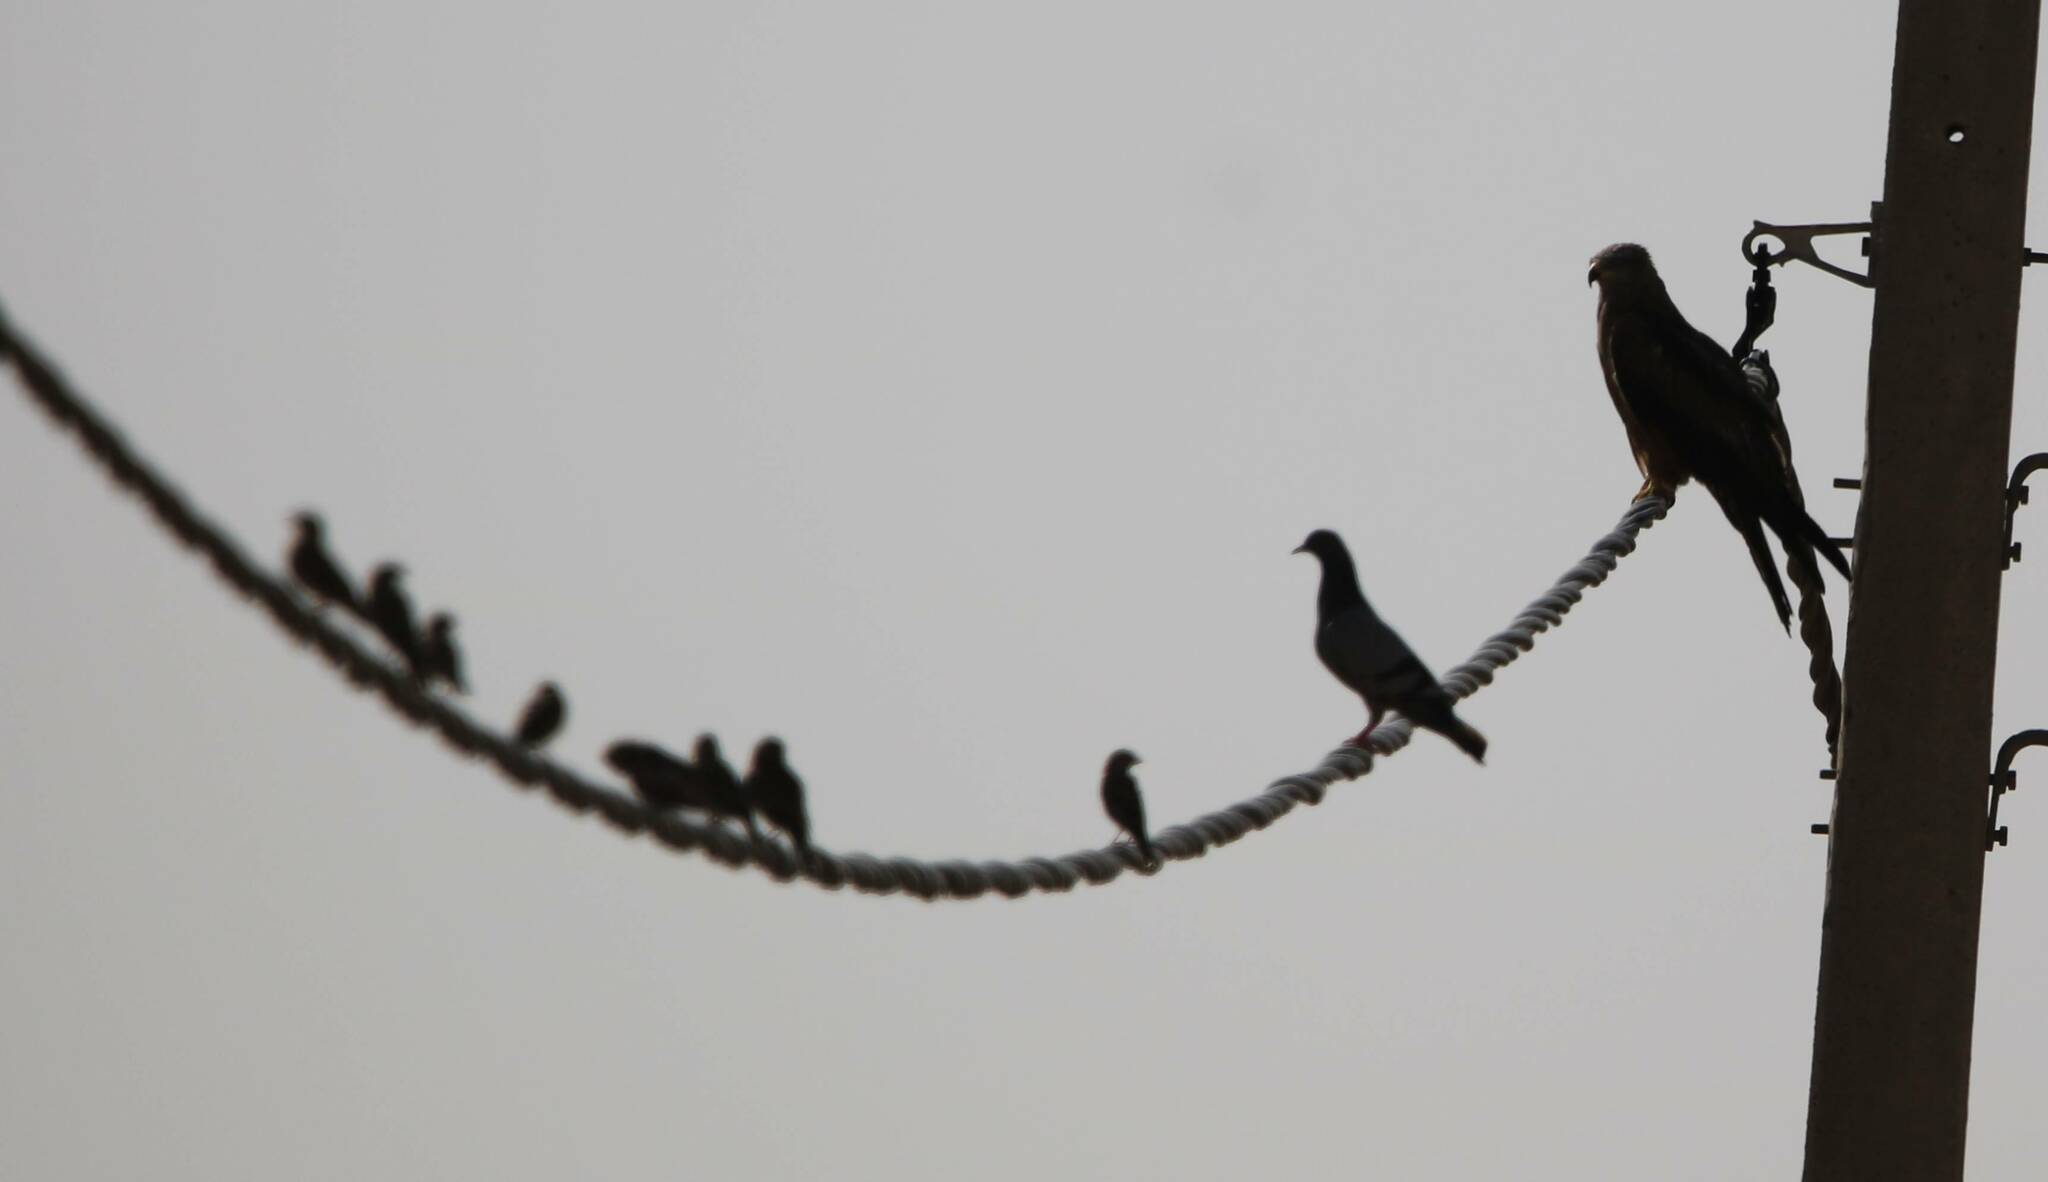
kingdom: Animalia
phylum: Chordata
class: Aves
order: Accipitriformes
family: Accipitridae
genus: Milvus
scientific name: Milvus migrans
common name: Black kite
